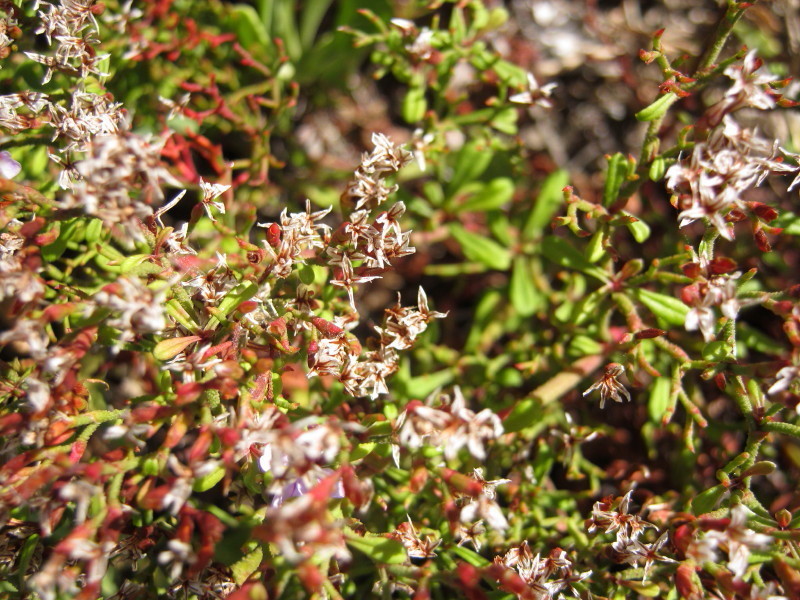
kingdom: Plantae
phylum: Tracheophyta
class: Magnoliopsida
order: Caryophyllales
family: Plumbaginaceae
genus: Limonium
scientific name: Limonium scabrum
